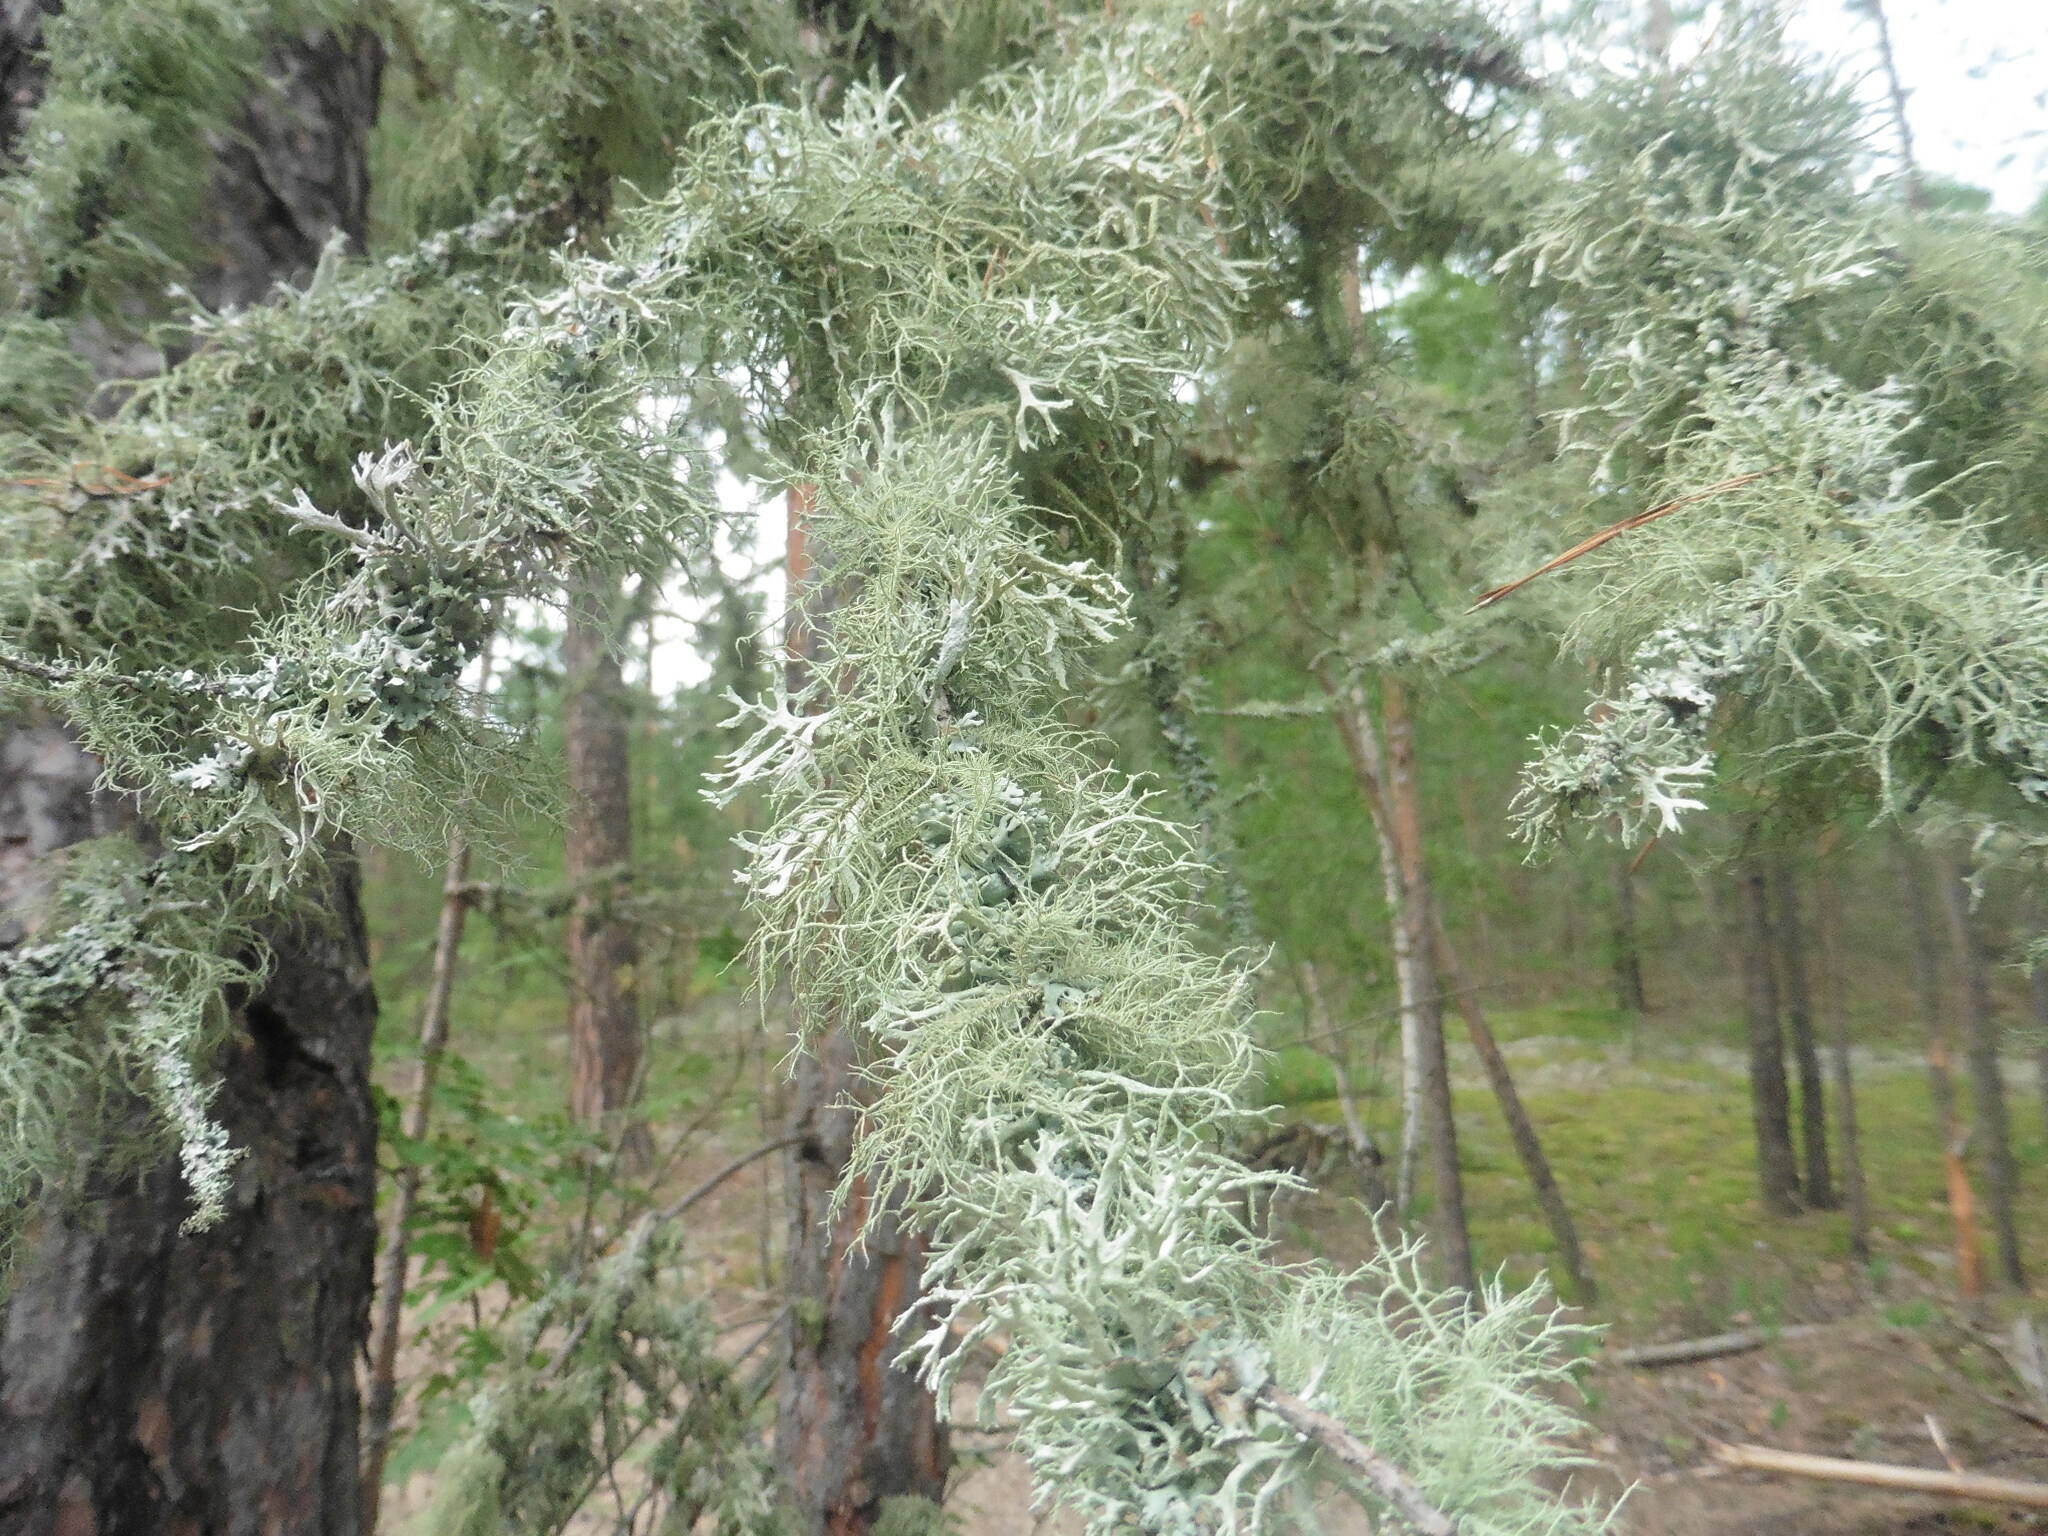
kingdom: Fungi
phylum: Ascomycota
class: Lecanoromycetes
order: Lecanorales
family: Parmeliaceae
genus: Evernia
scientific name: Evernia prunastri
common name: Oak moss
